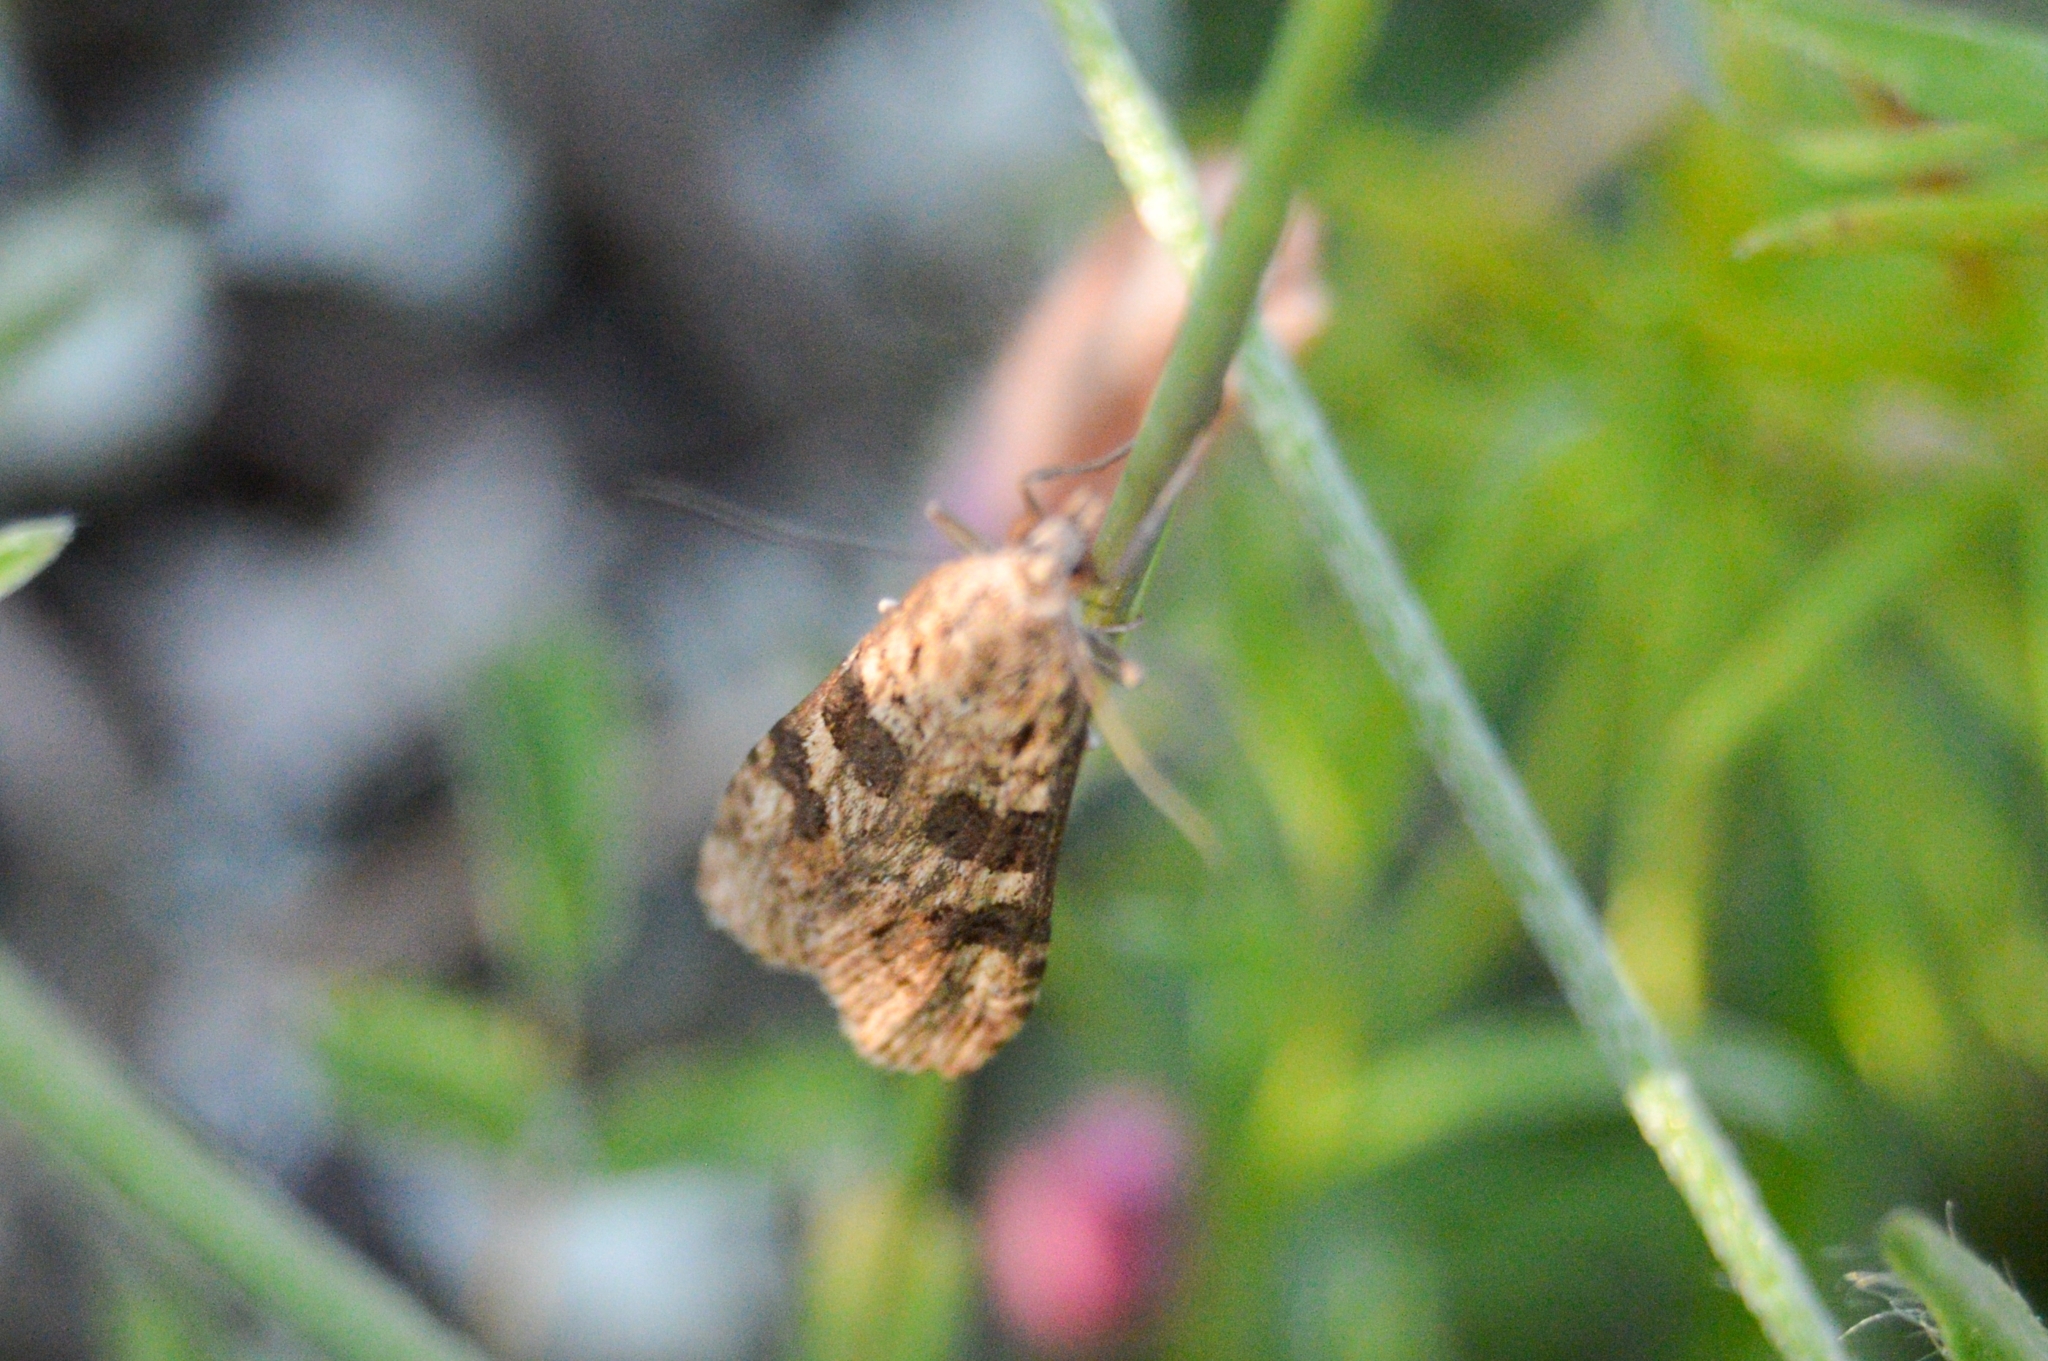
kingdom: Animalia
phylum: Arthropoda
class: Insecta
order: Lepidoptera
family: Crambidae
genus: Nomophila
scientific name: Nomophila noctuella
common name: Rush veneer
